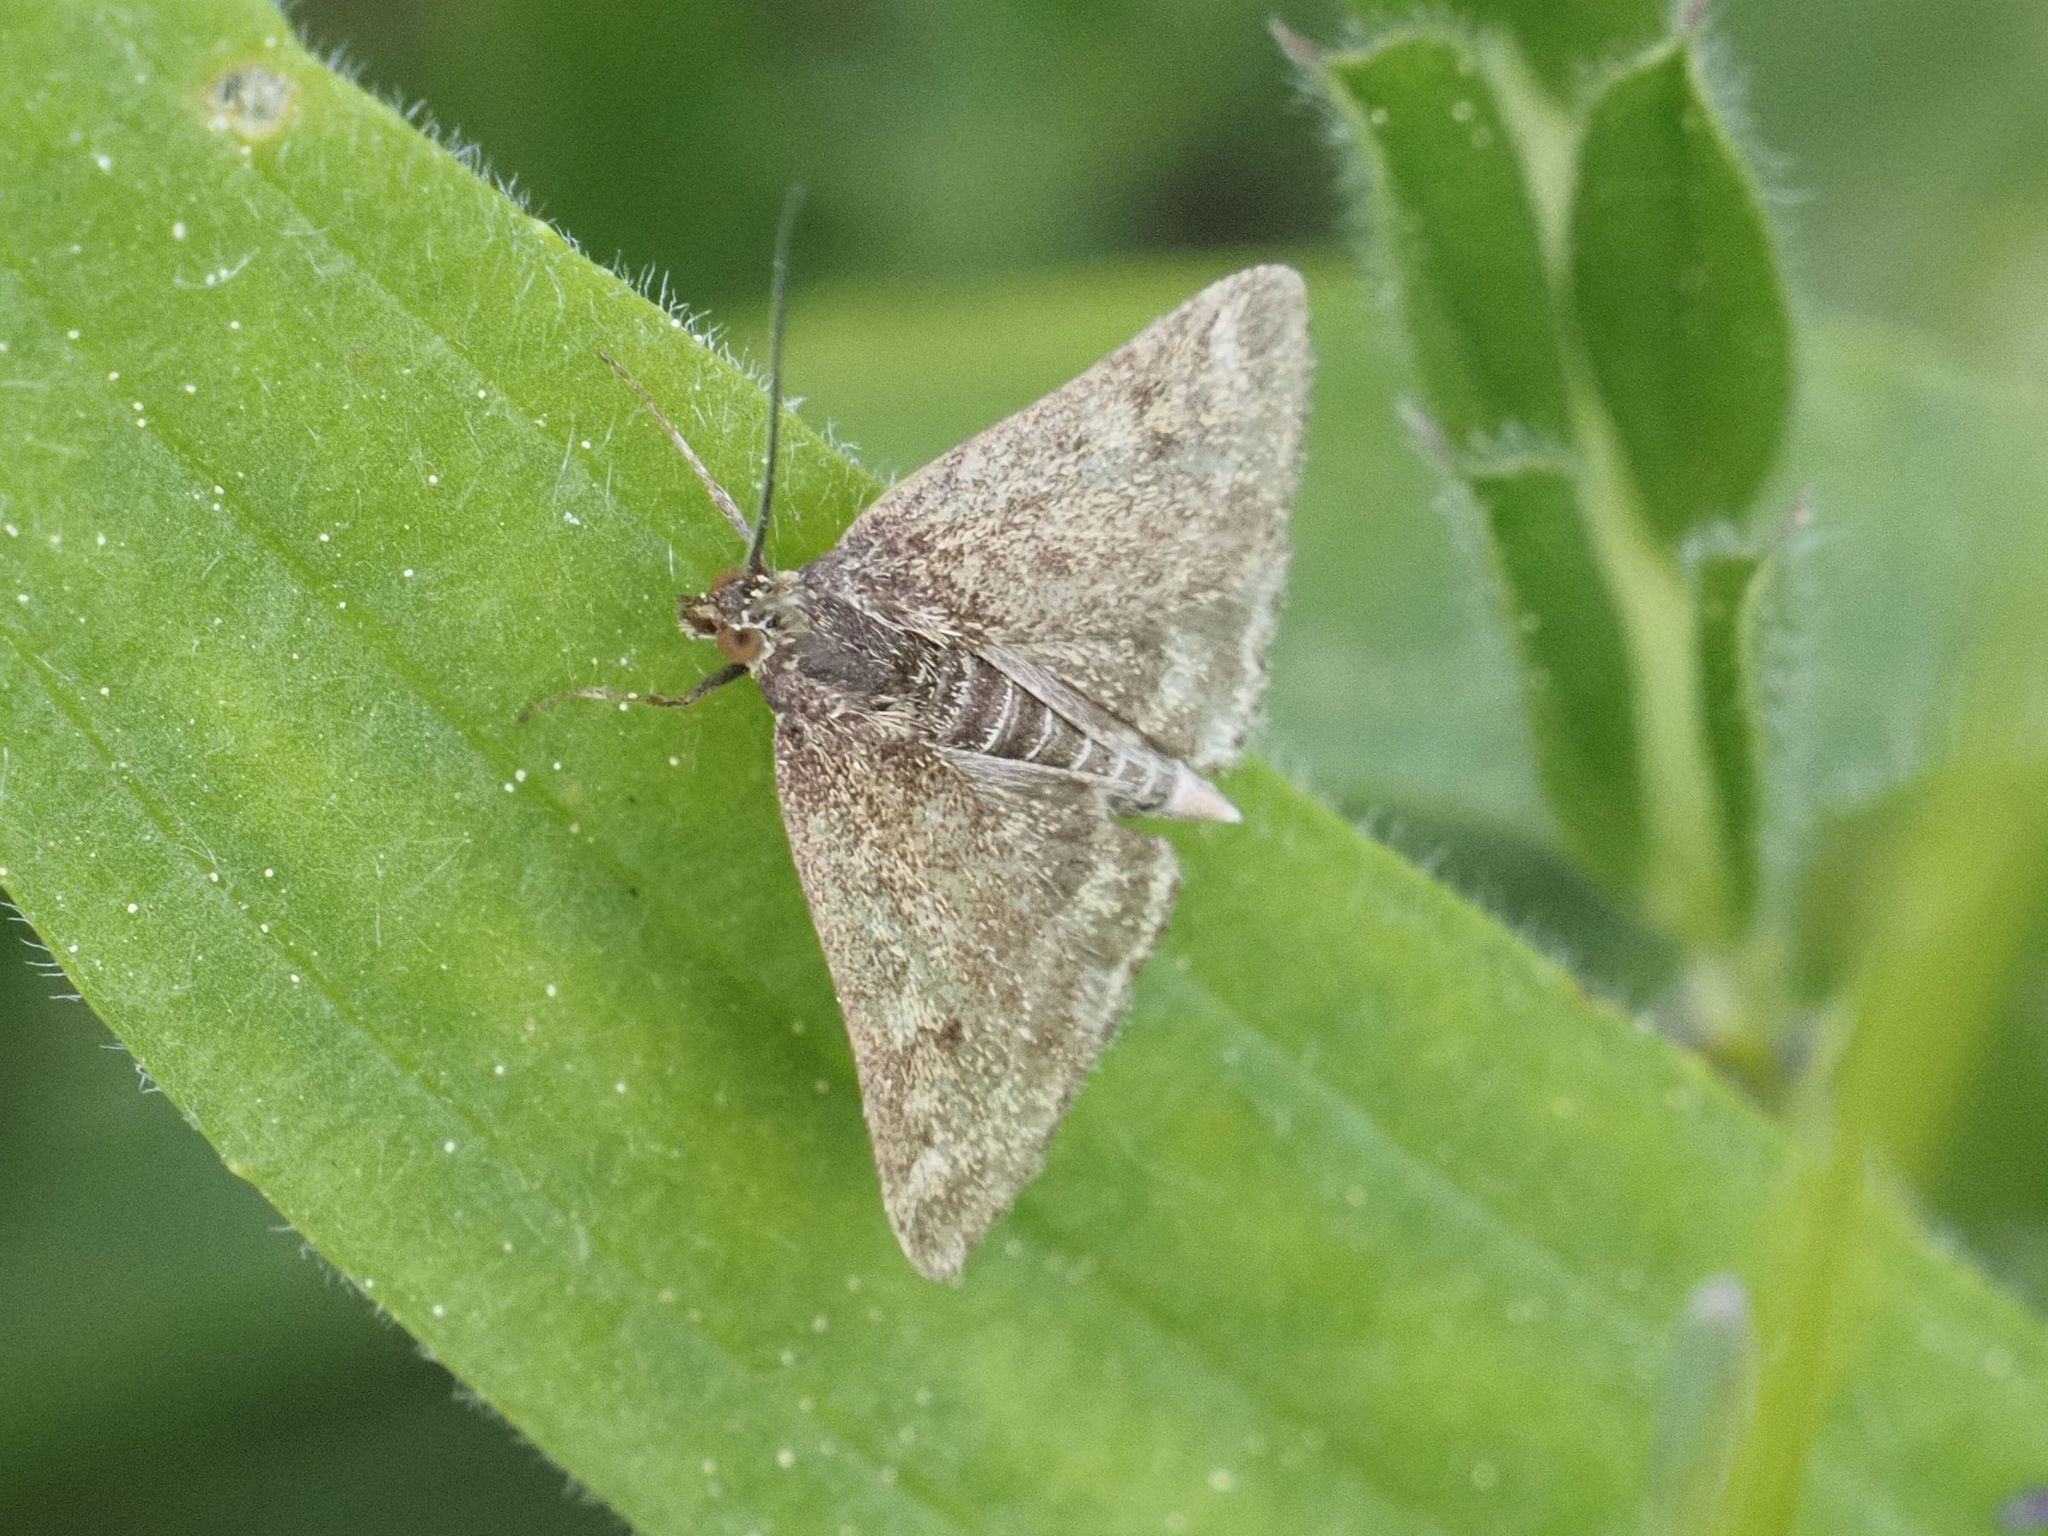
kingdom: Animalia
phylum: Arthropoda
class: Insecta
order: Lepidoptera
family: Crambidae
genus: Pyrausta
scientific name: Pyrausta despicata
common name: Straw-barred pearl
